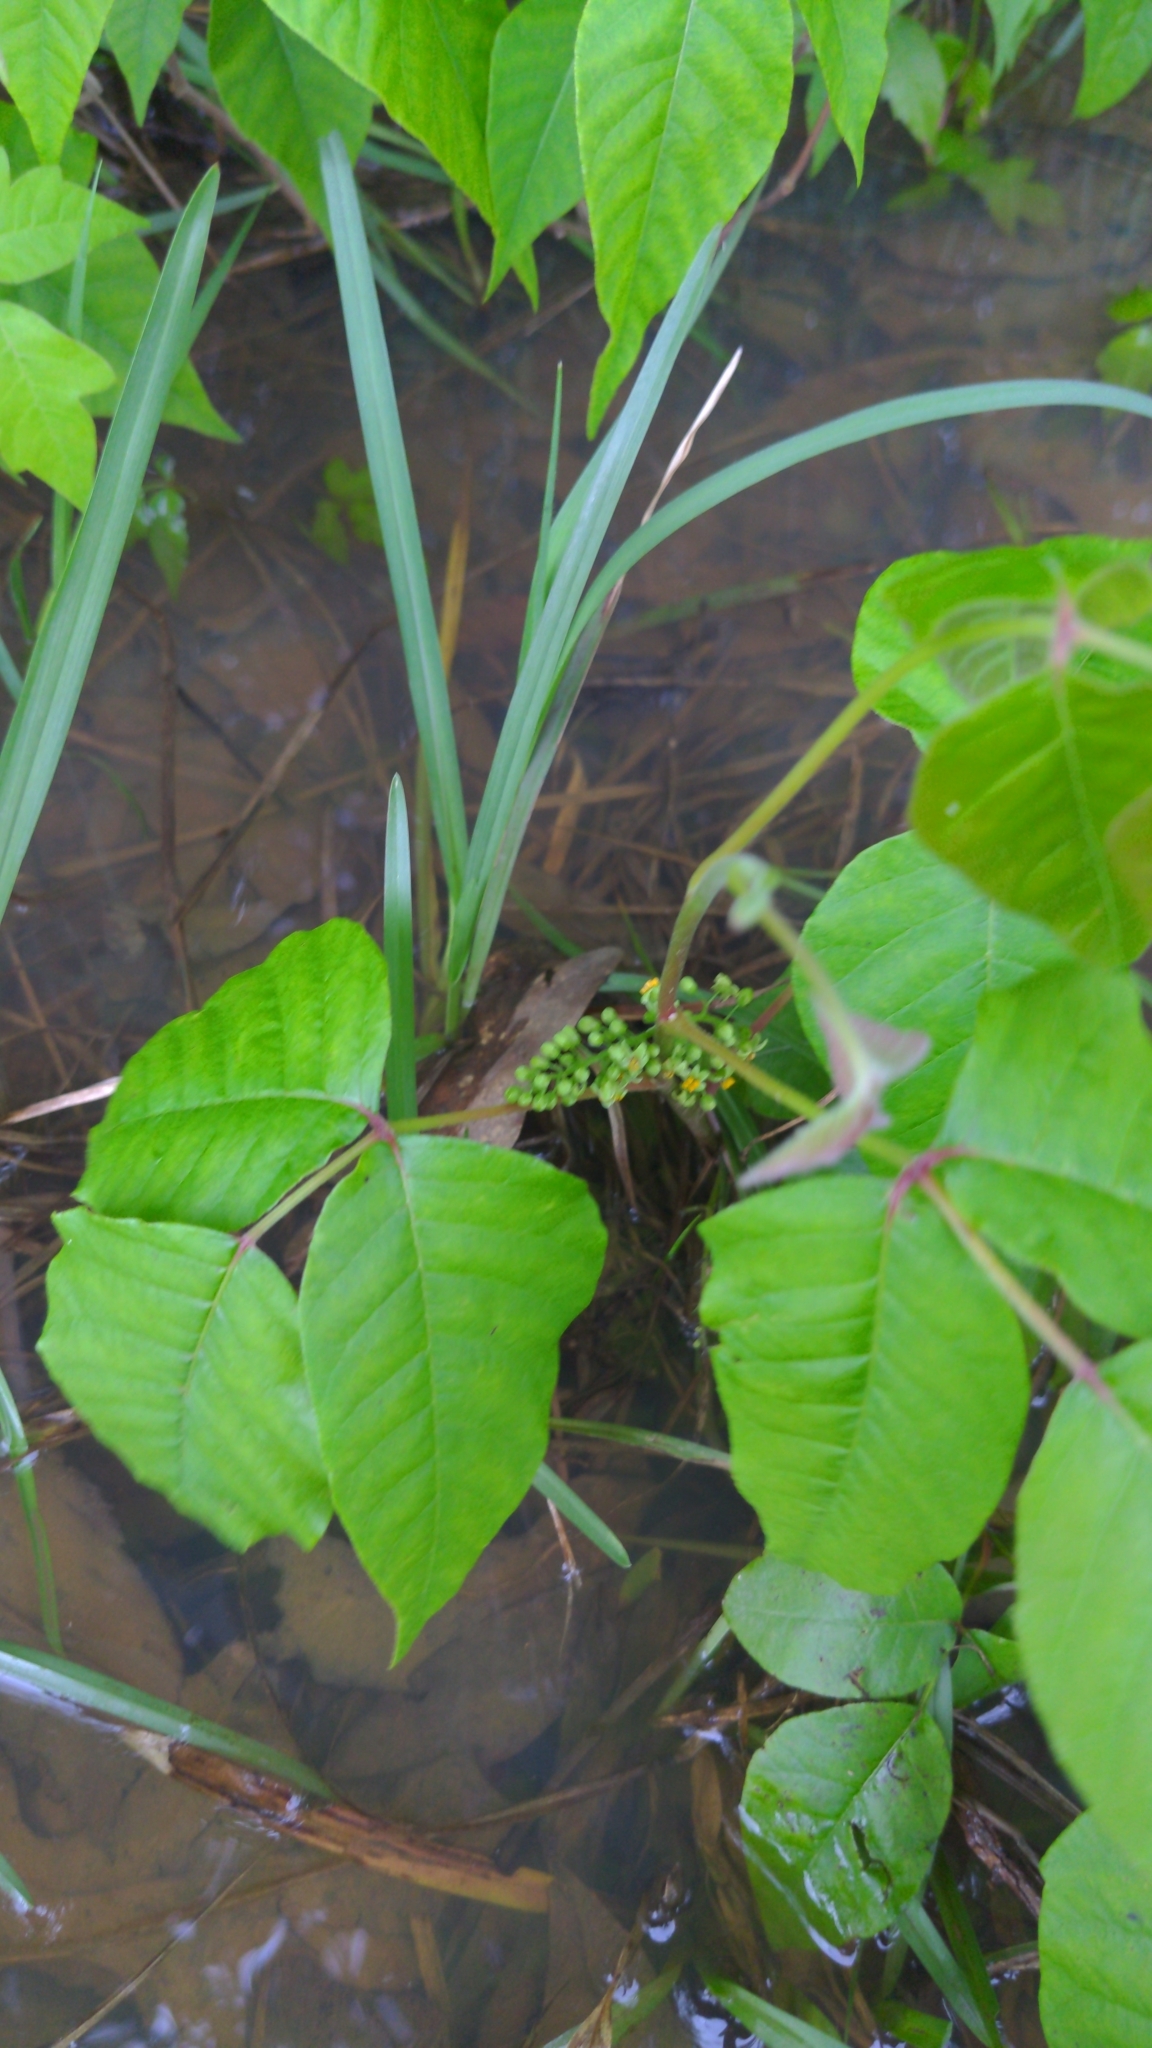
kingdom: Plantae
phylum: Tracheophyta
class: Magnoliopsida
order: Sapindales
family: Anacardiaceae
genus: Toxicodendron
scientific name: Toxicodendron radicans
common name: Poison ivy
